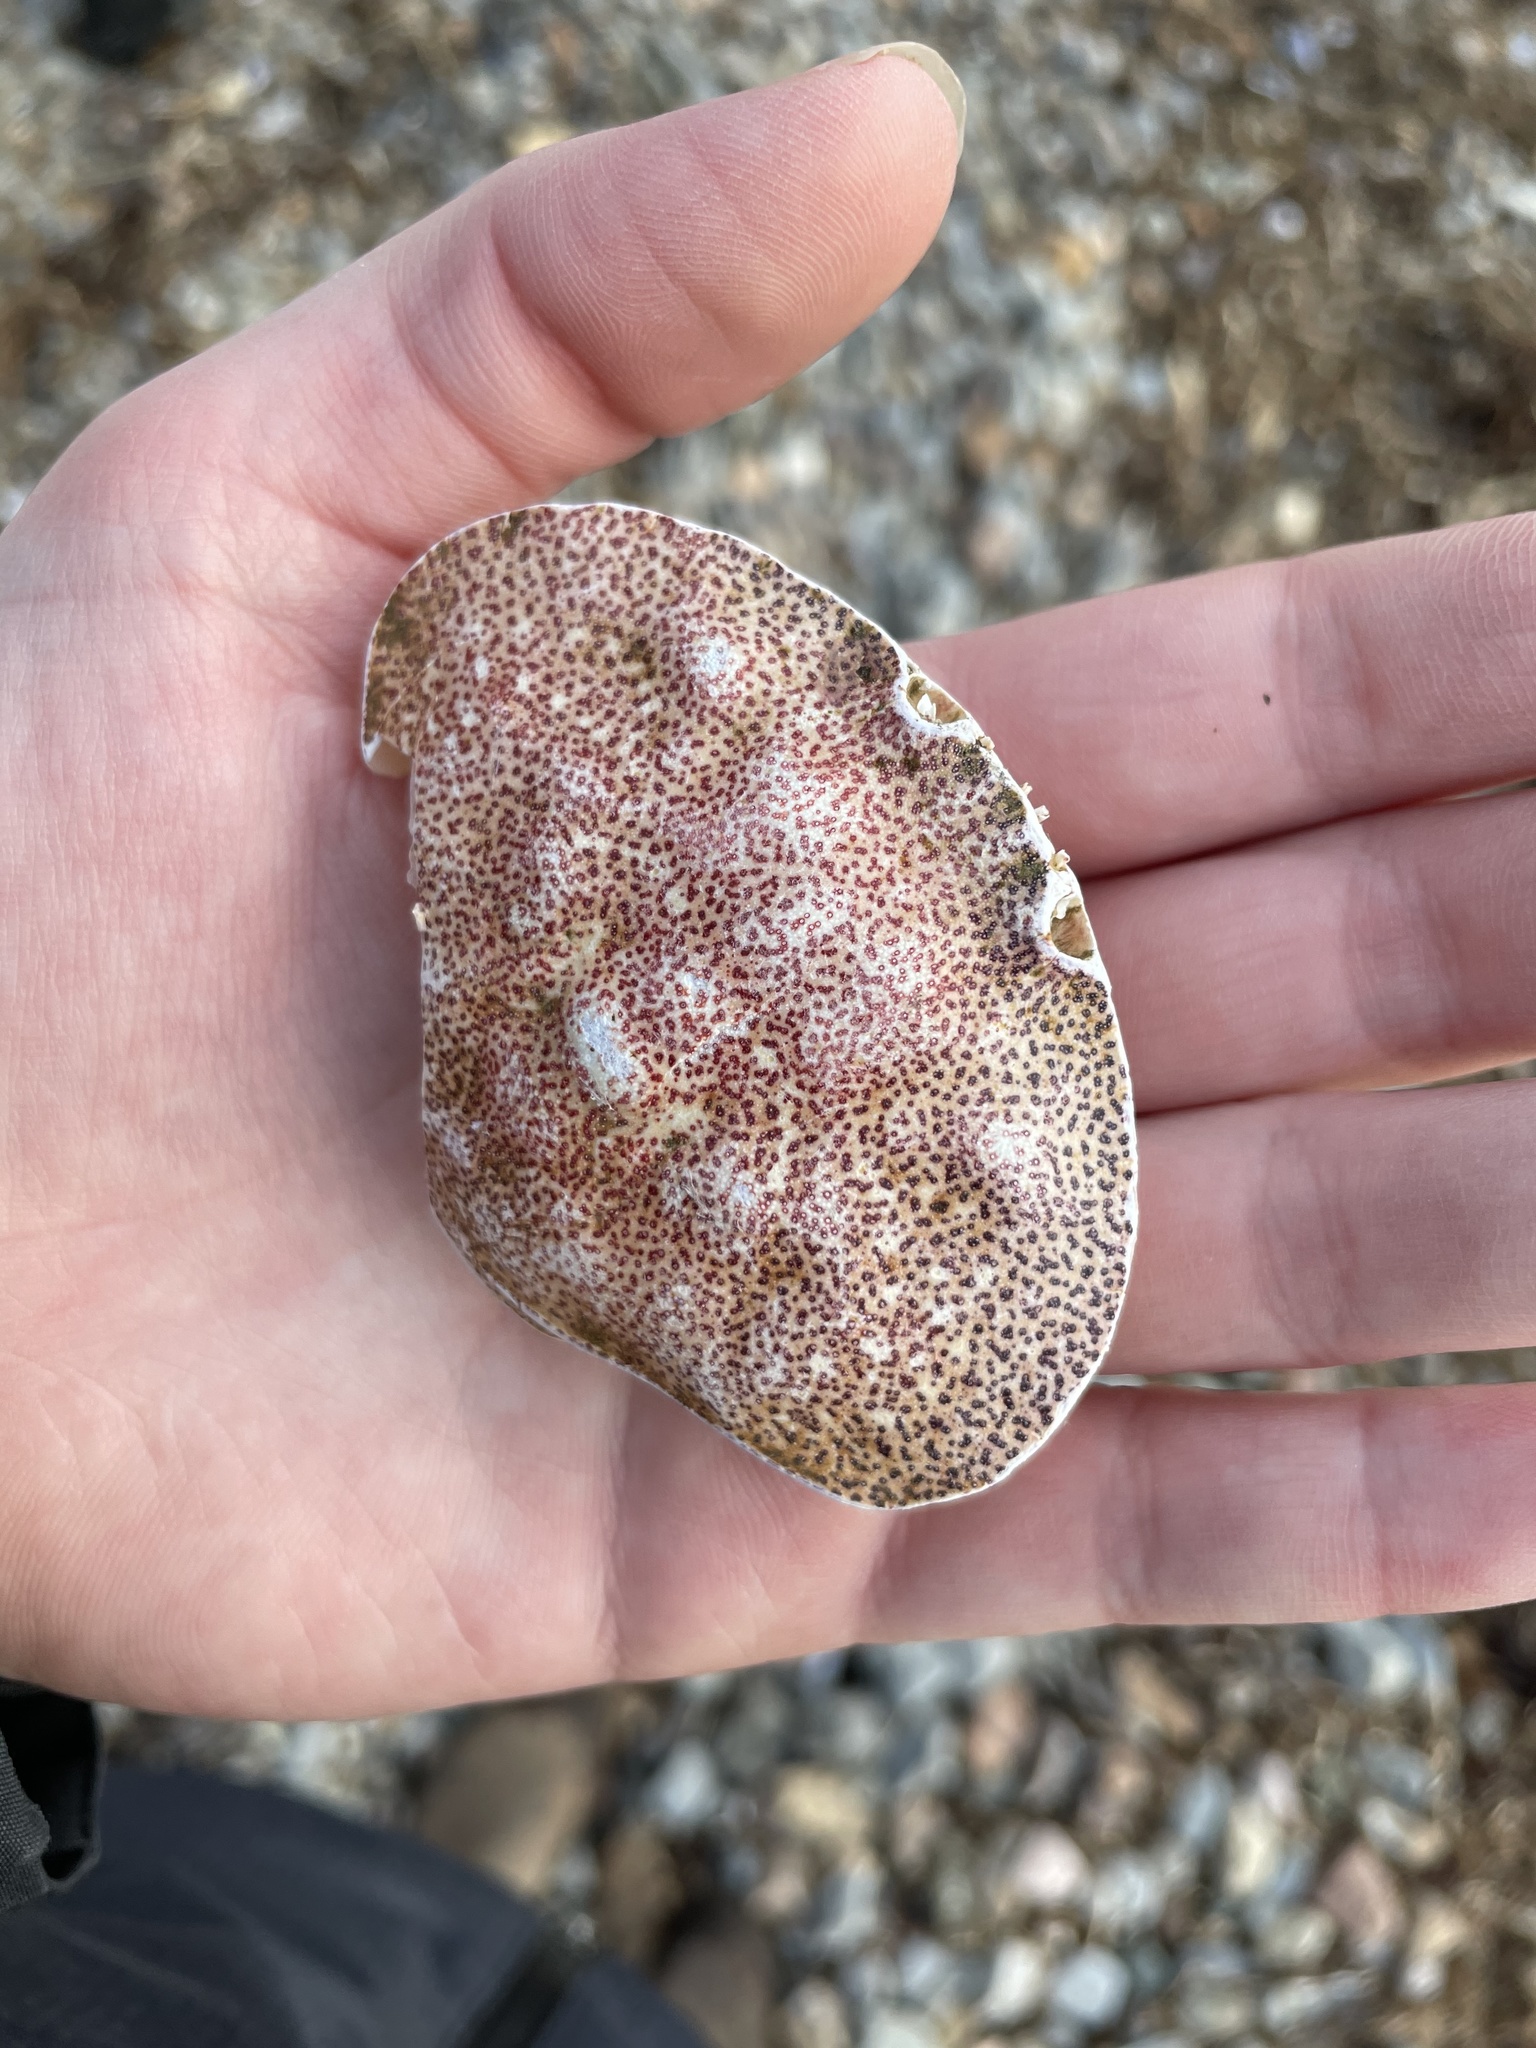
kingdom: Animalia
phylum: Arthropoda
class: Malacostraca
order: Decapoda
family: Cancridae
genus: Cancer
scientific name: Cancer irroratus
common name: Atlantic rock crab
